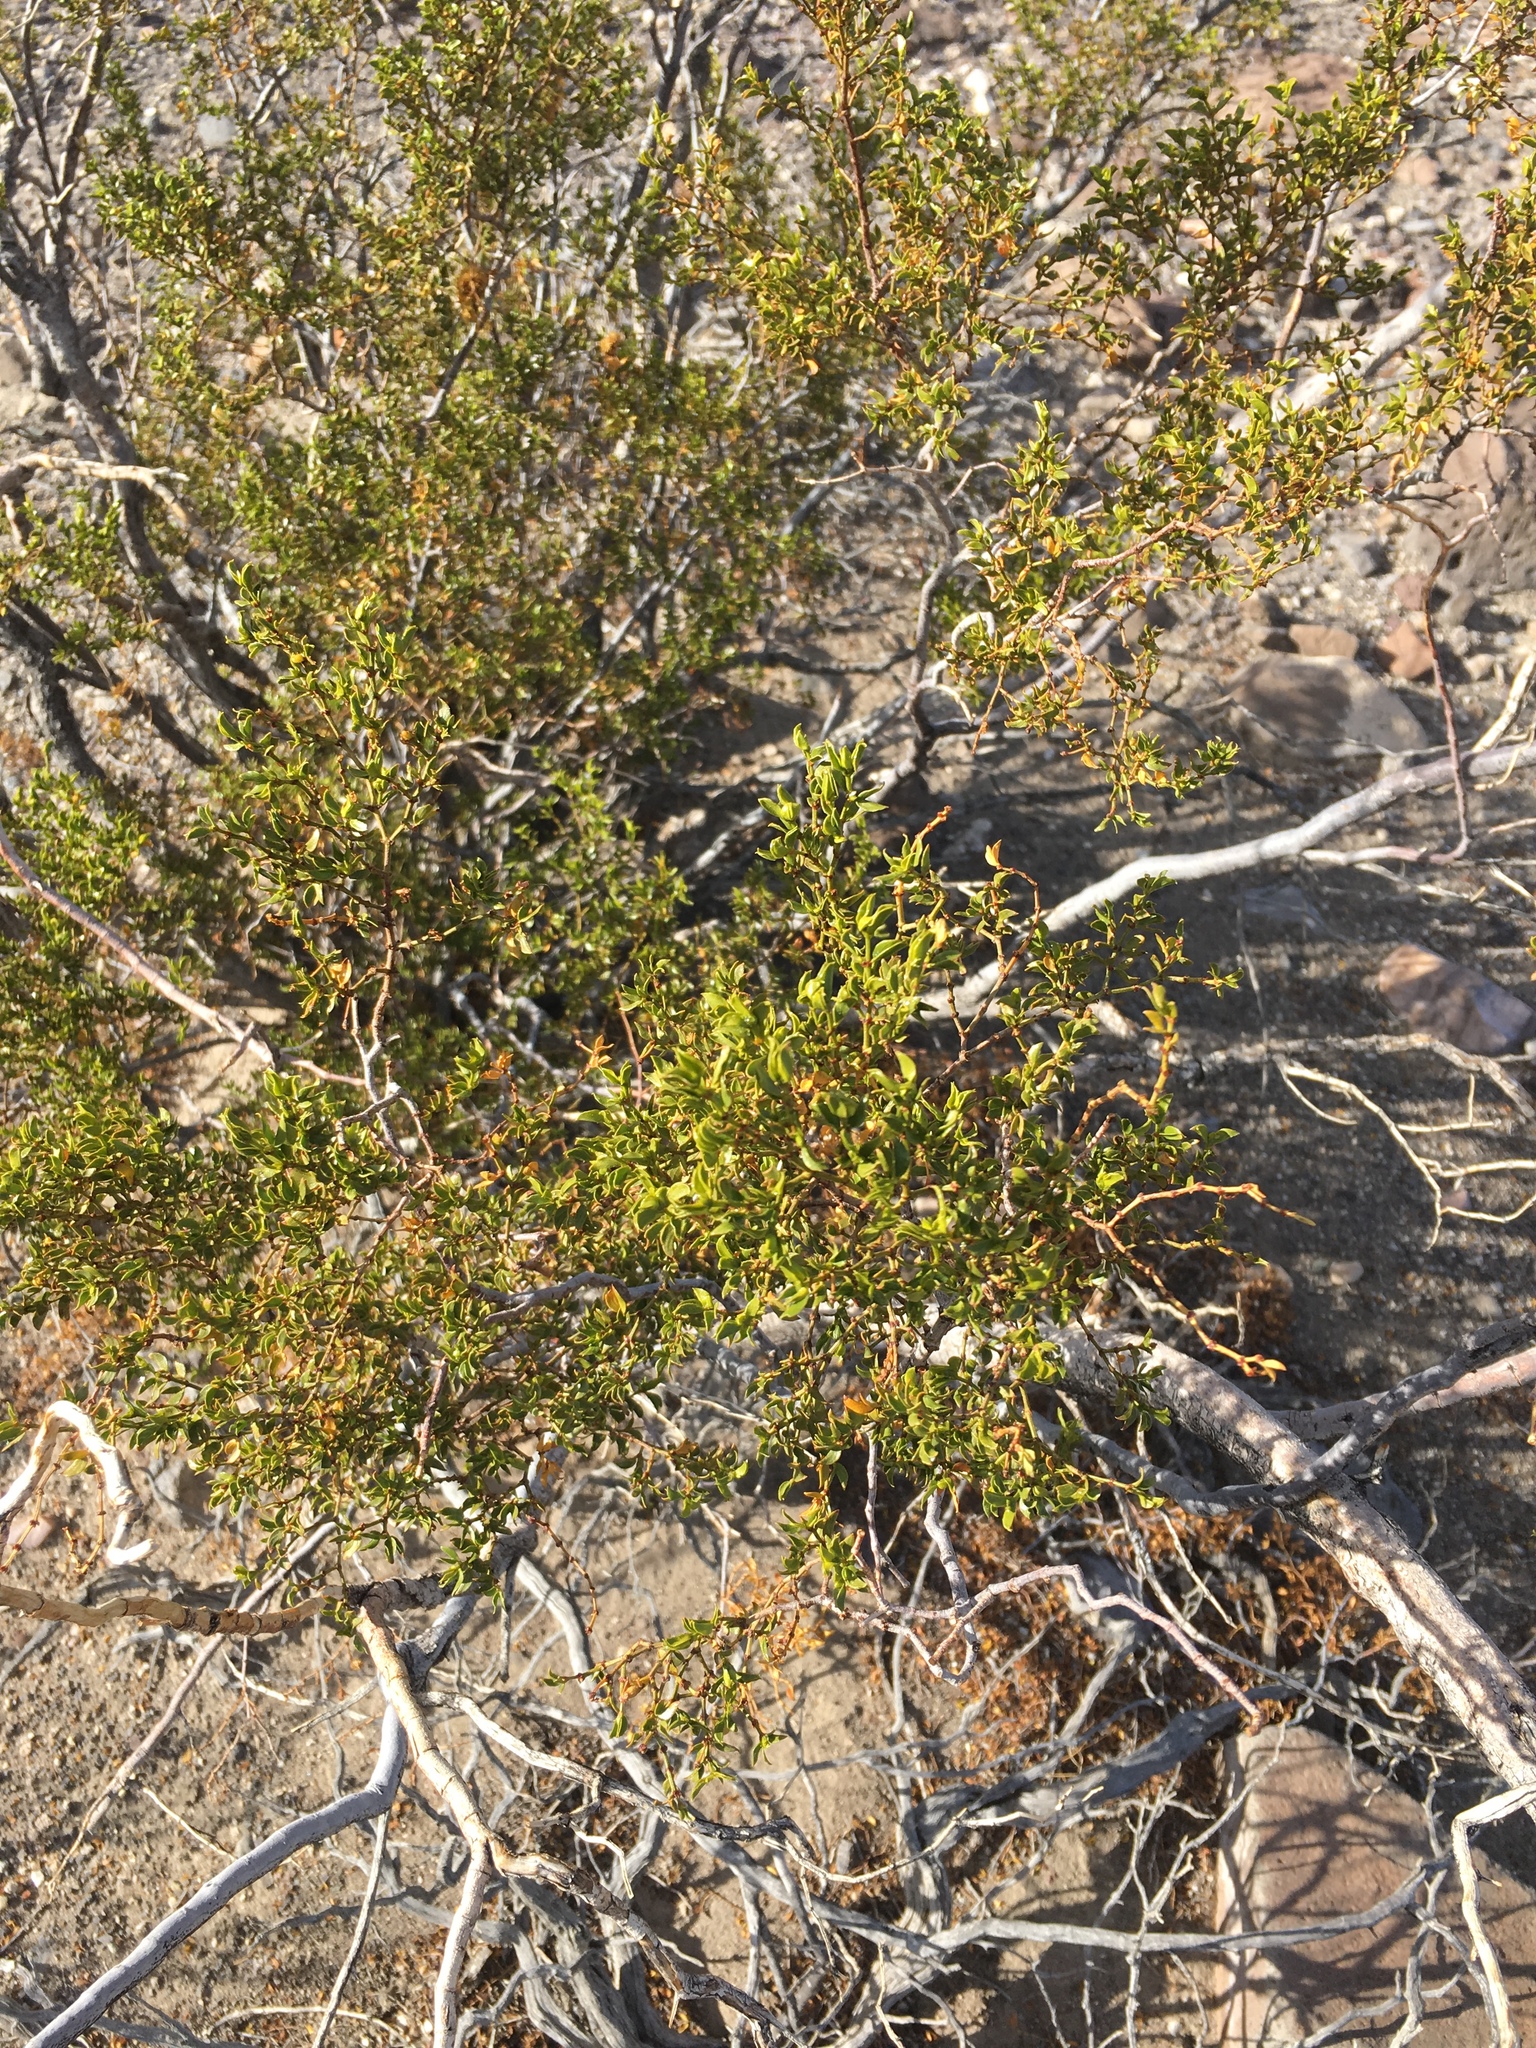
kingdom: Plantae
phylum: Tracheophyta
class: Magnoliopsida
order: Zygophyllales
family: Zygophyllaceae
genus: Larrea
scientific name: Larrea tridentata
